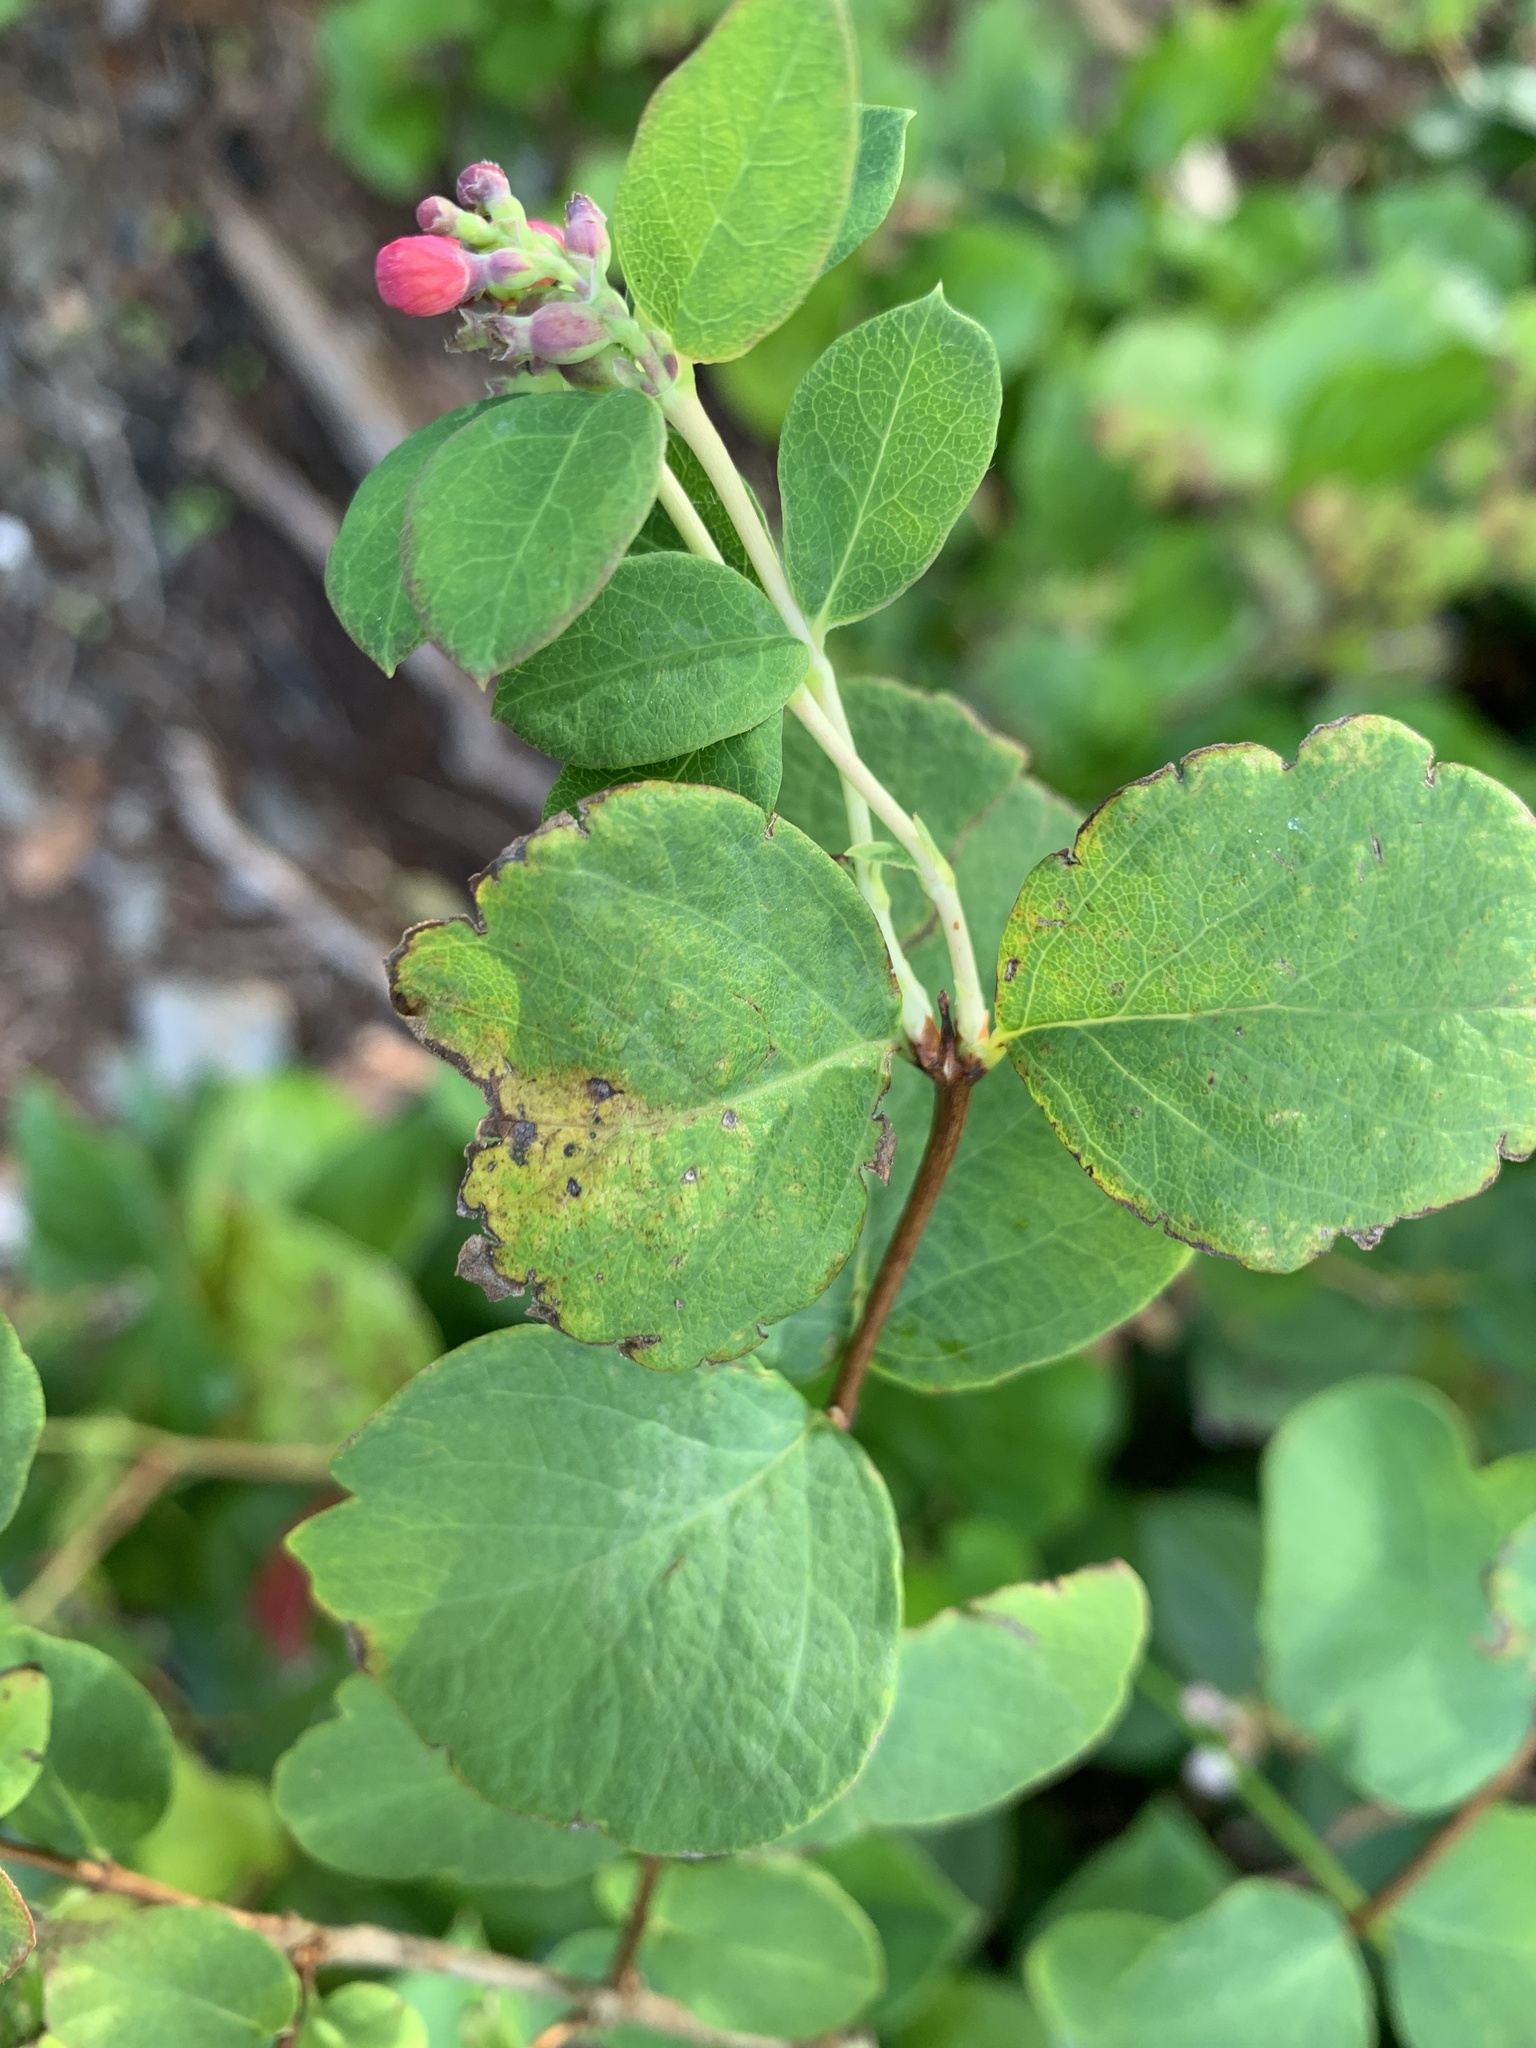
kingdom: Plantae
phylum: Tracheophyta
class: Magnoliopsida
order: Dipsacales
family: Caprifoliaceae
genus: Symphoricarpos
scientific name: Symphoricarpos albus
